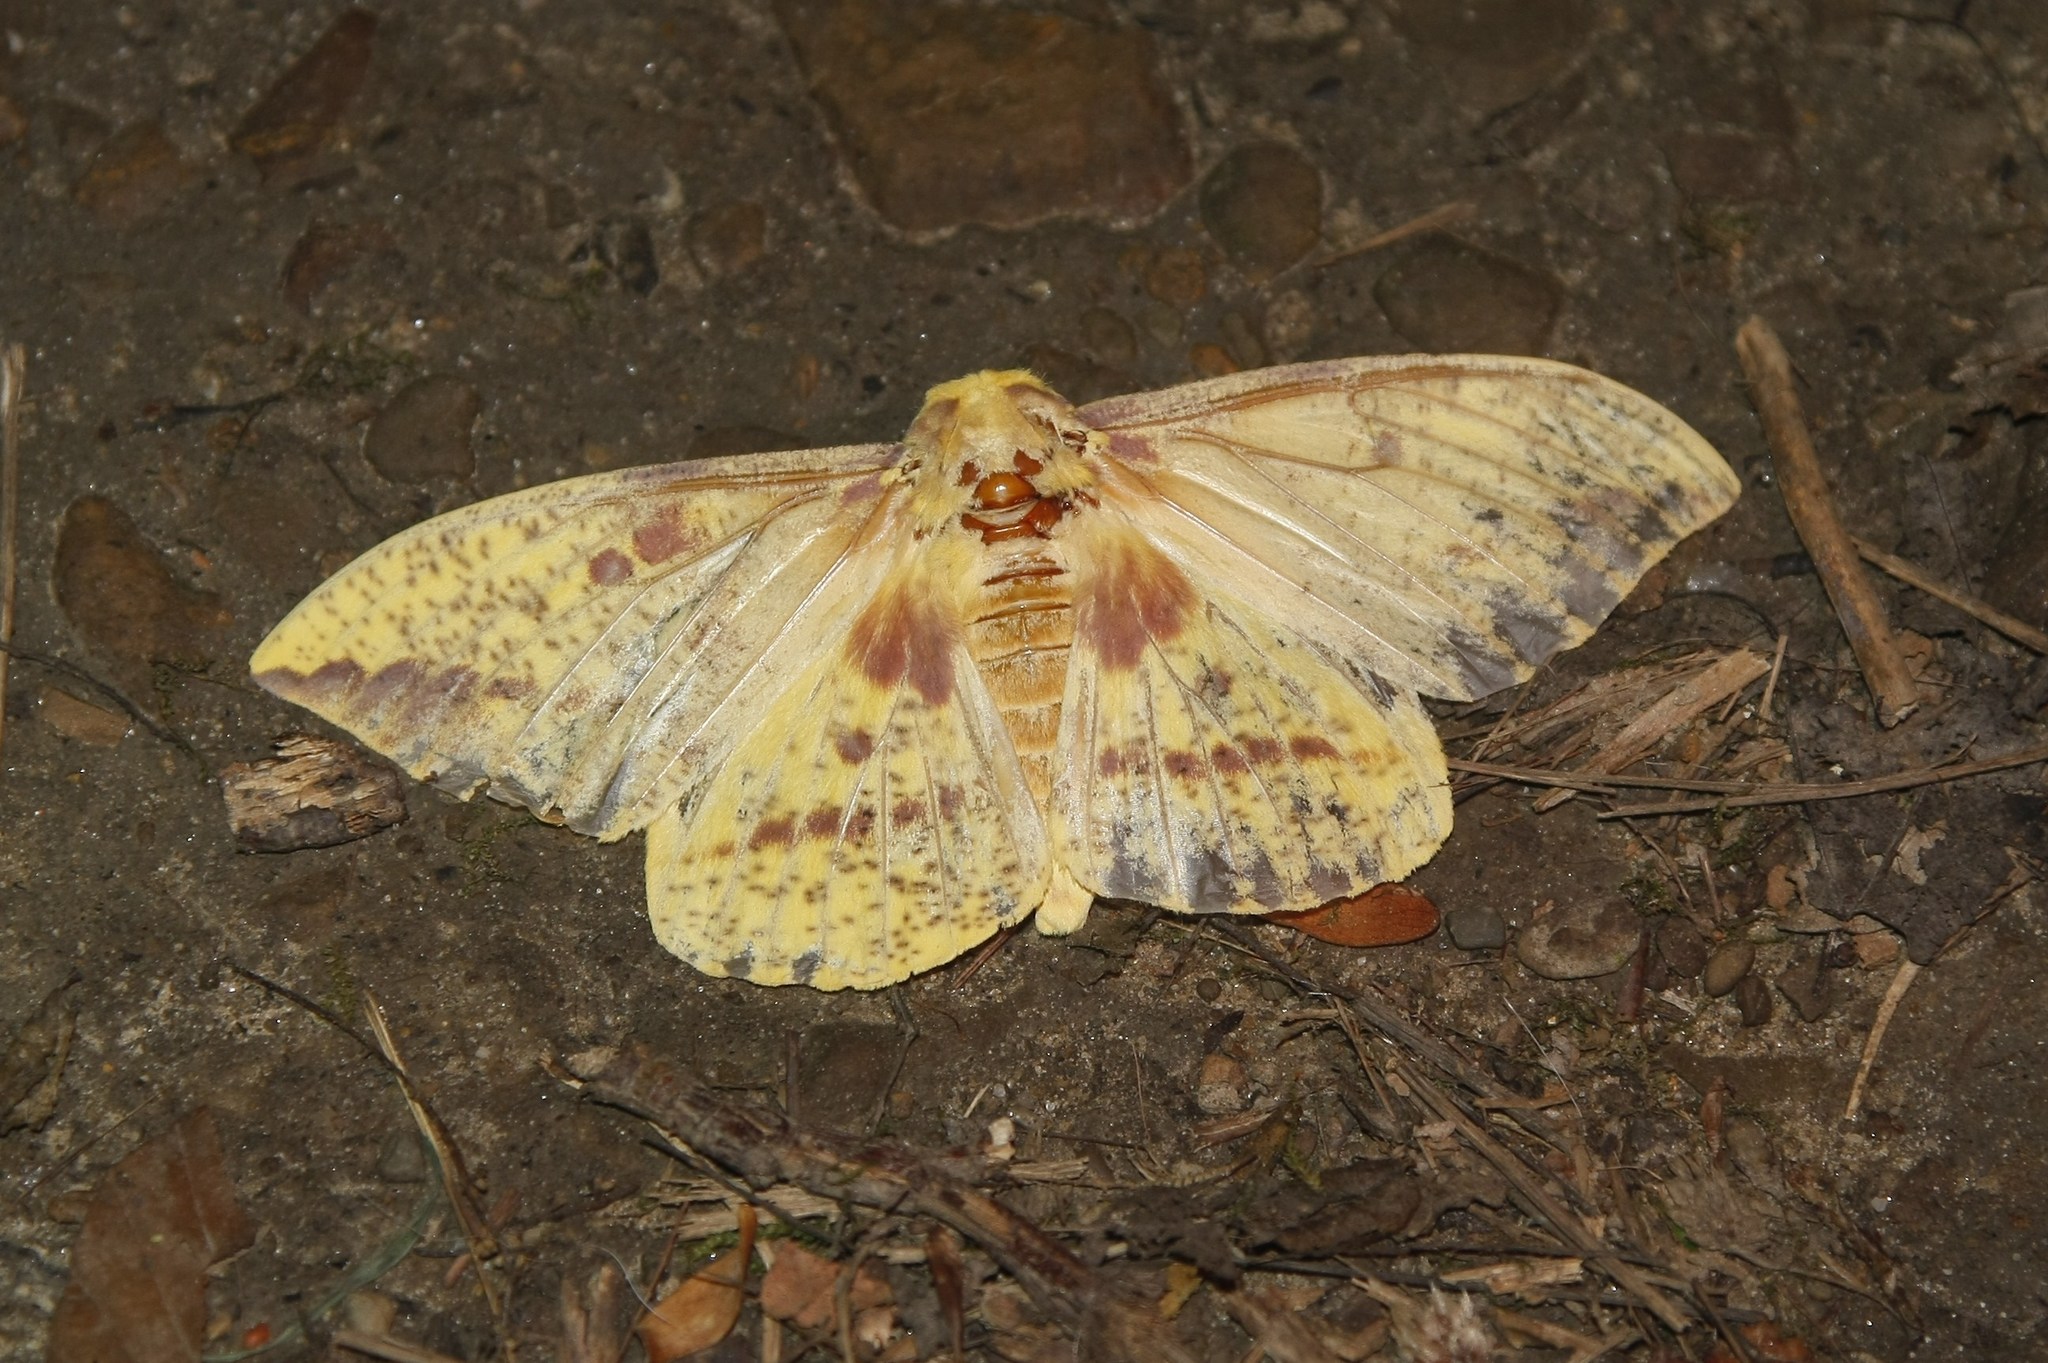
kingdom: Animalia
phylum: Arthropoda
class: Insecta
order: Lepidoptera
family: Saturniidae
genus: Eacles
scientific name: Eacles imperialis
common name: Imperial moth
